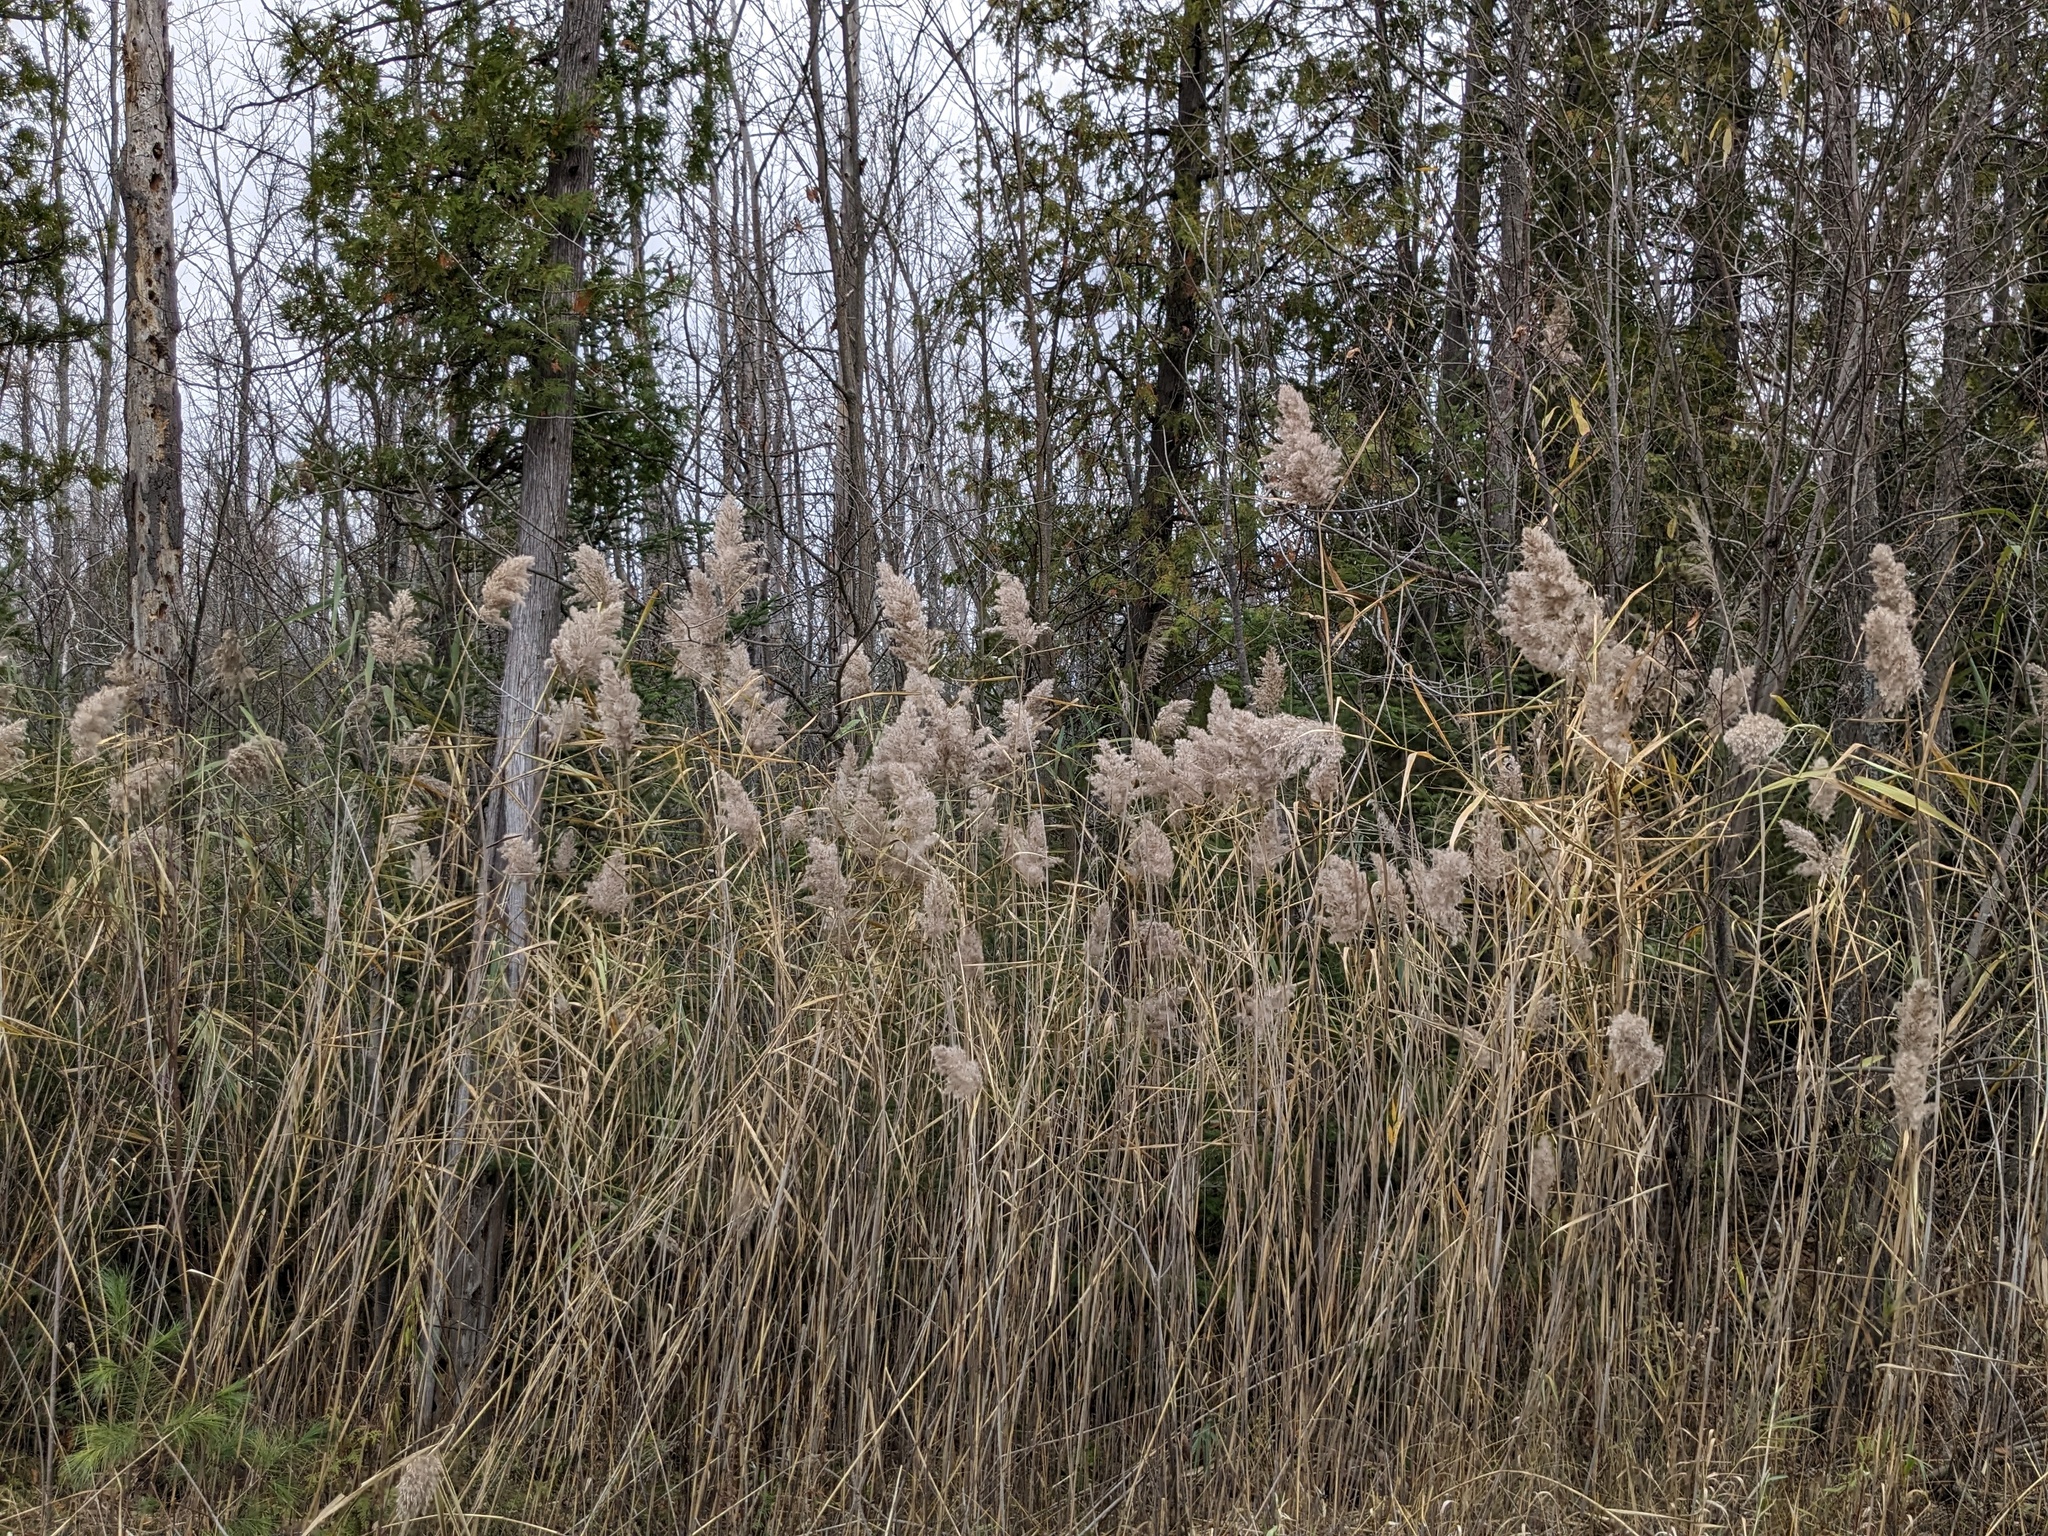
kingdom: Plantae
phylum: Tracheophyta
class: Liliopsida
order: Poales
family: Poaceae
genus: Phragmites
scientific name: Phragmites australis
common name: Common reed
